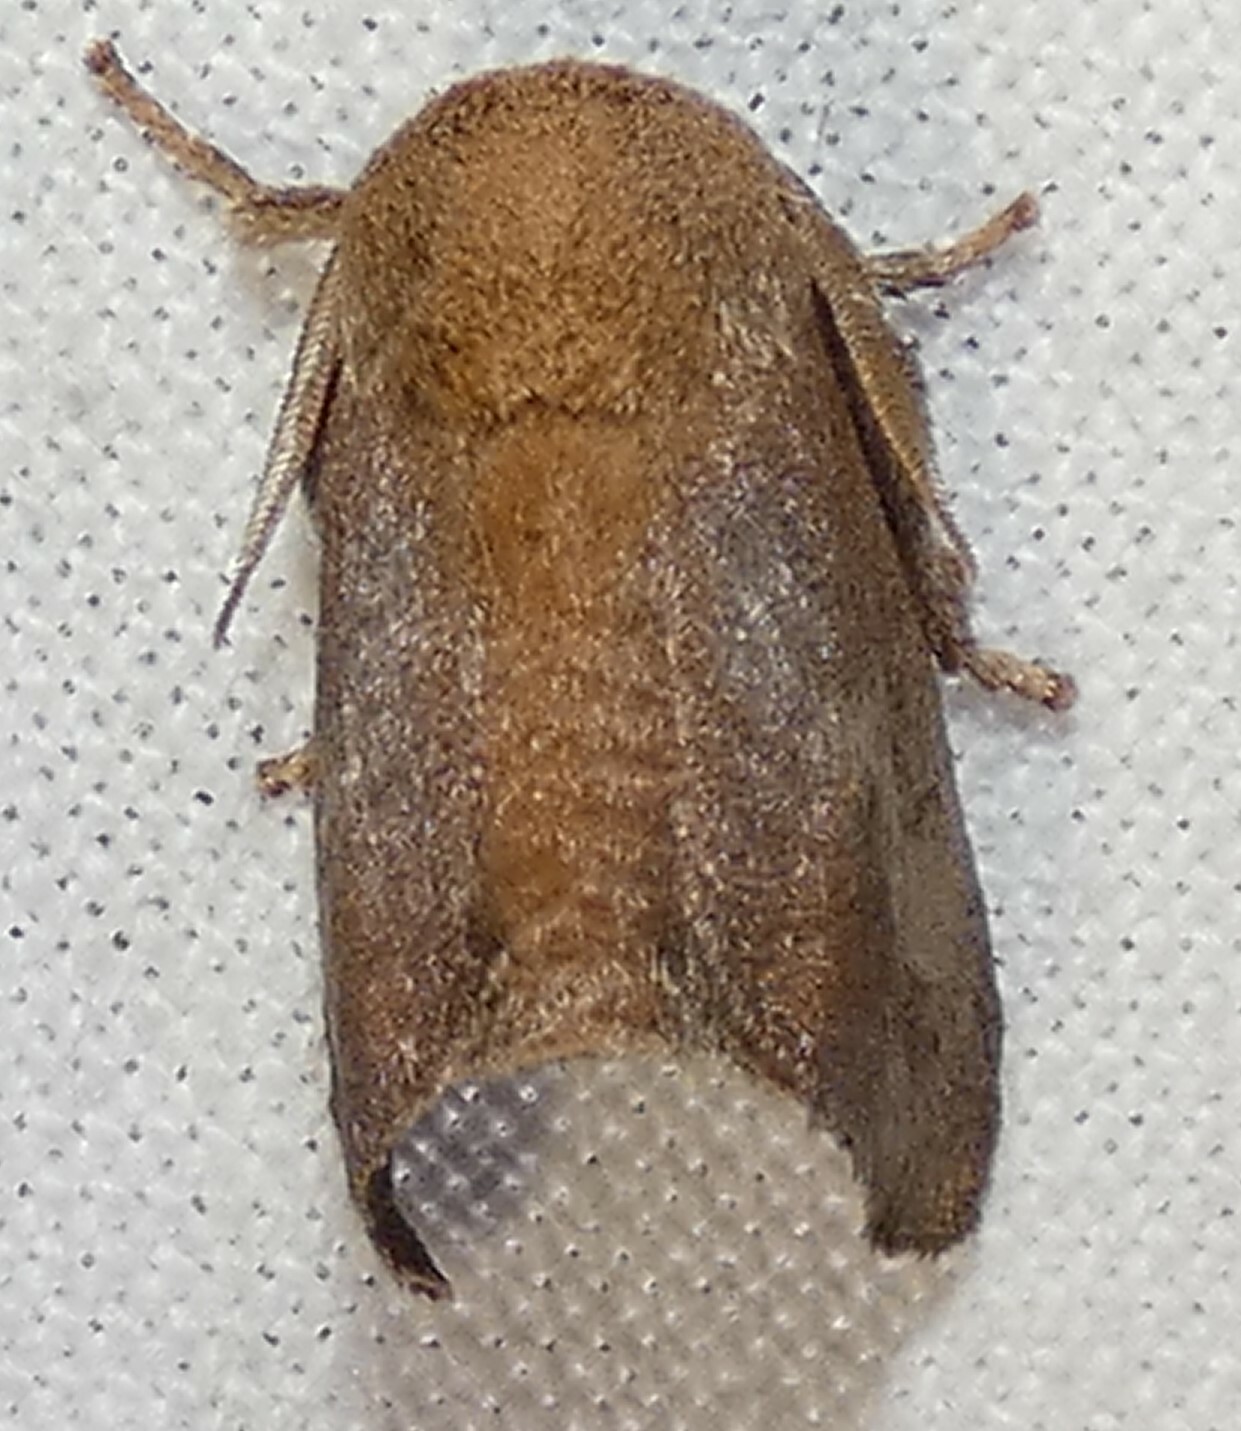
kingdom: Animalia
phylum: Arthropoda
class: Insecta
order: Lepidoptera
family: Limacodidae
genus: Isa
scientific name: Isa textula
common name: Crowned slug moth
